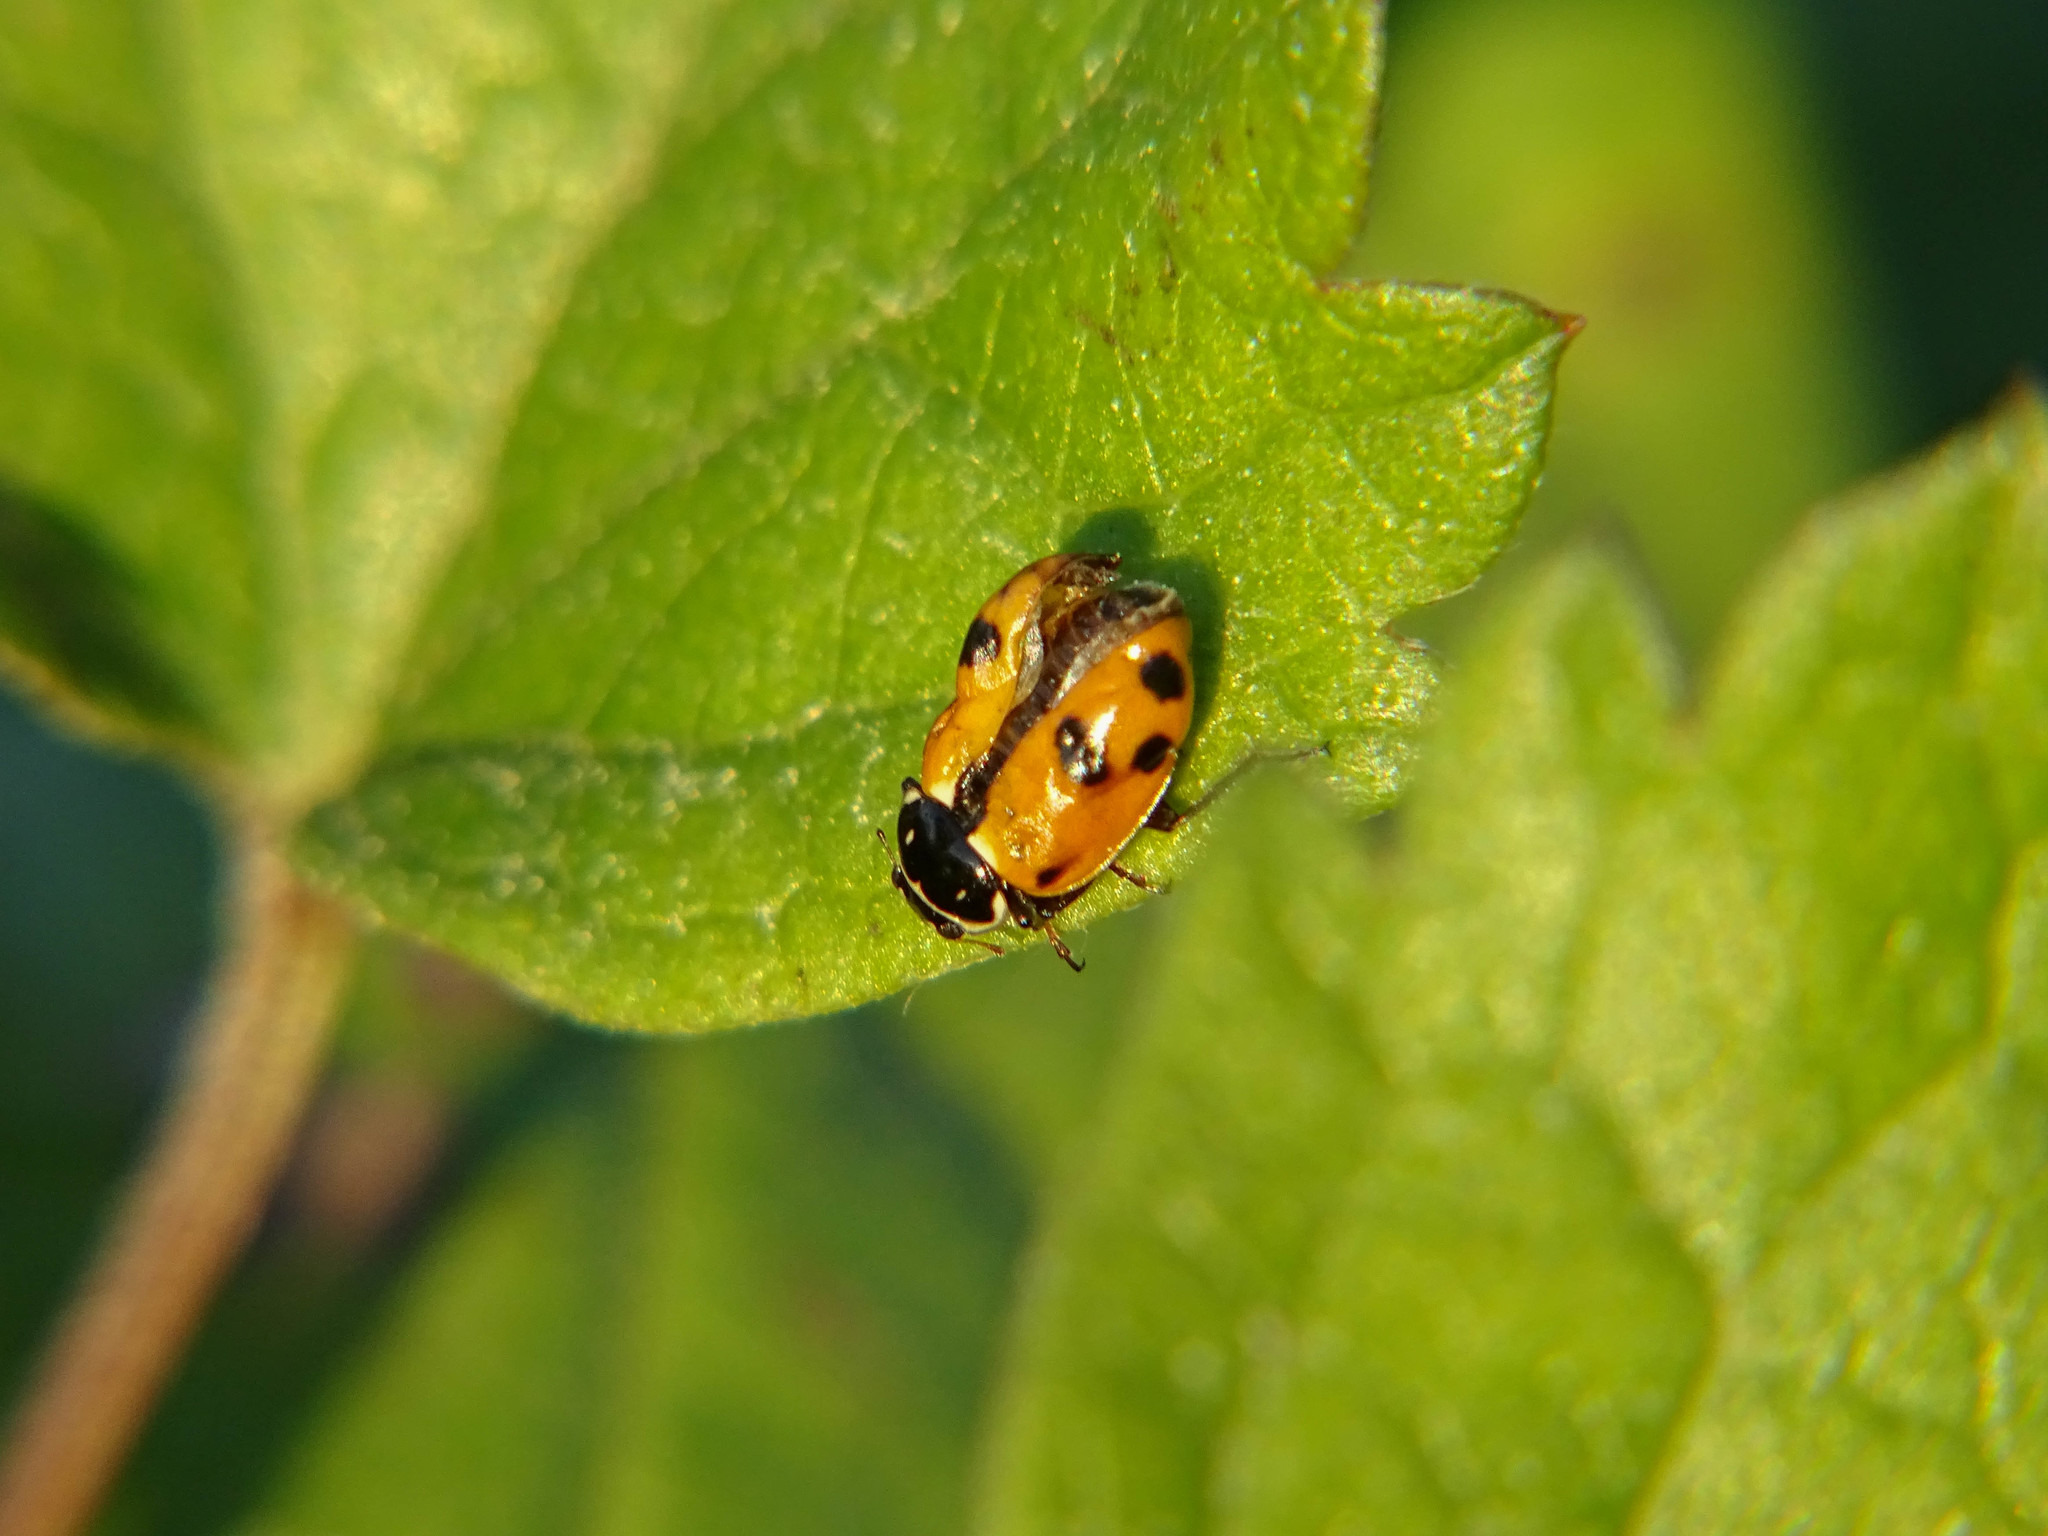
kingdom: Animalia
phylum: Arthropoda
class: Insecta
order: Coleoptera
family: Coccinellidae
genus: Hippodamia
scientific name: Hippodamia variegata
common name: Ladybird beetle
